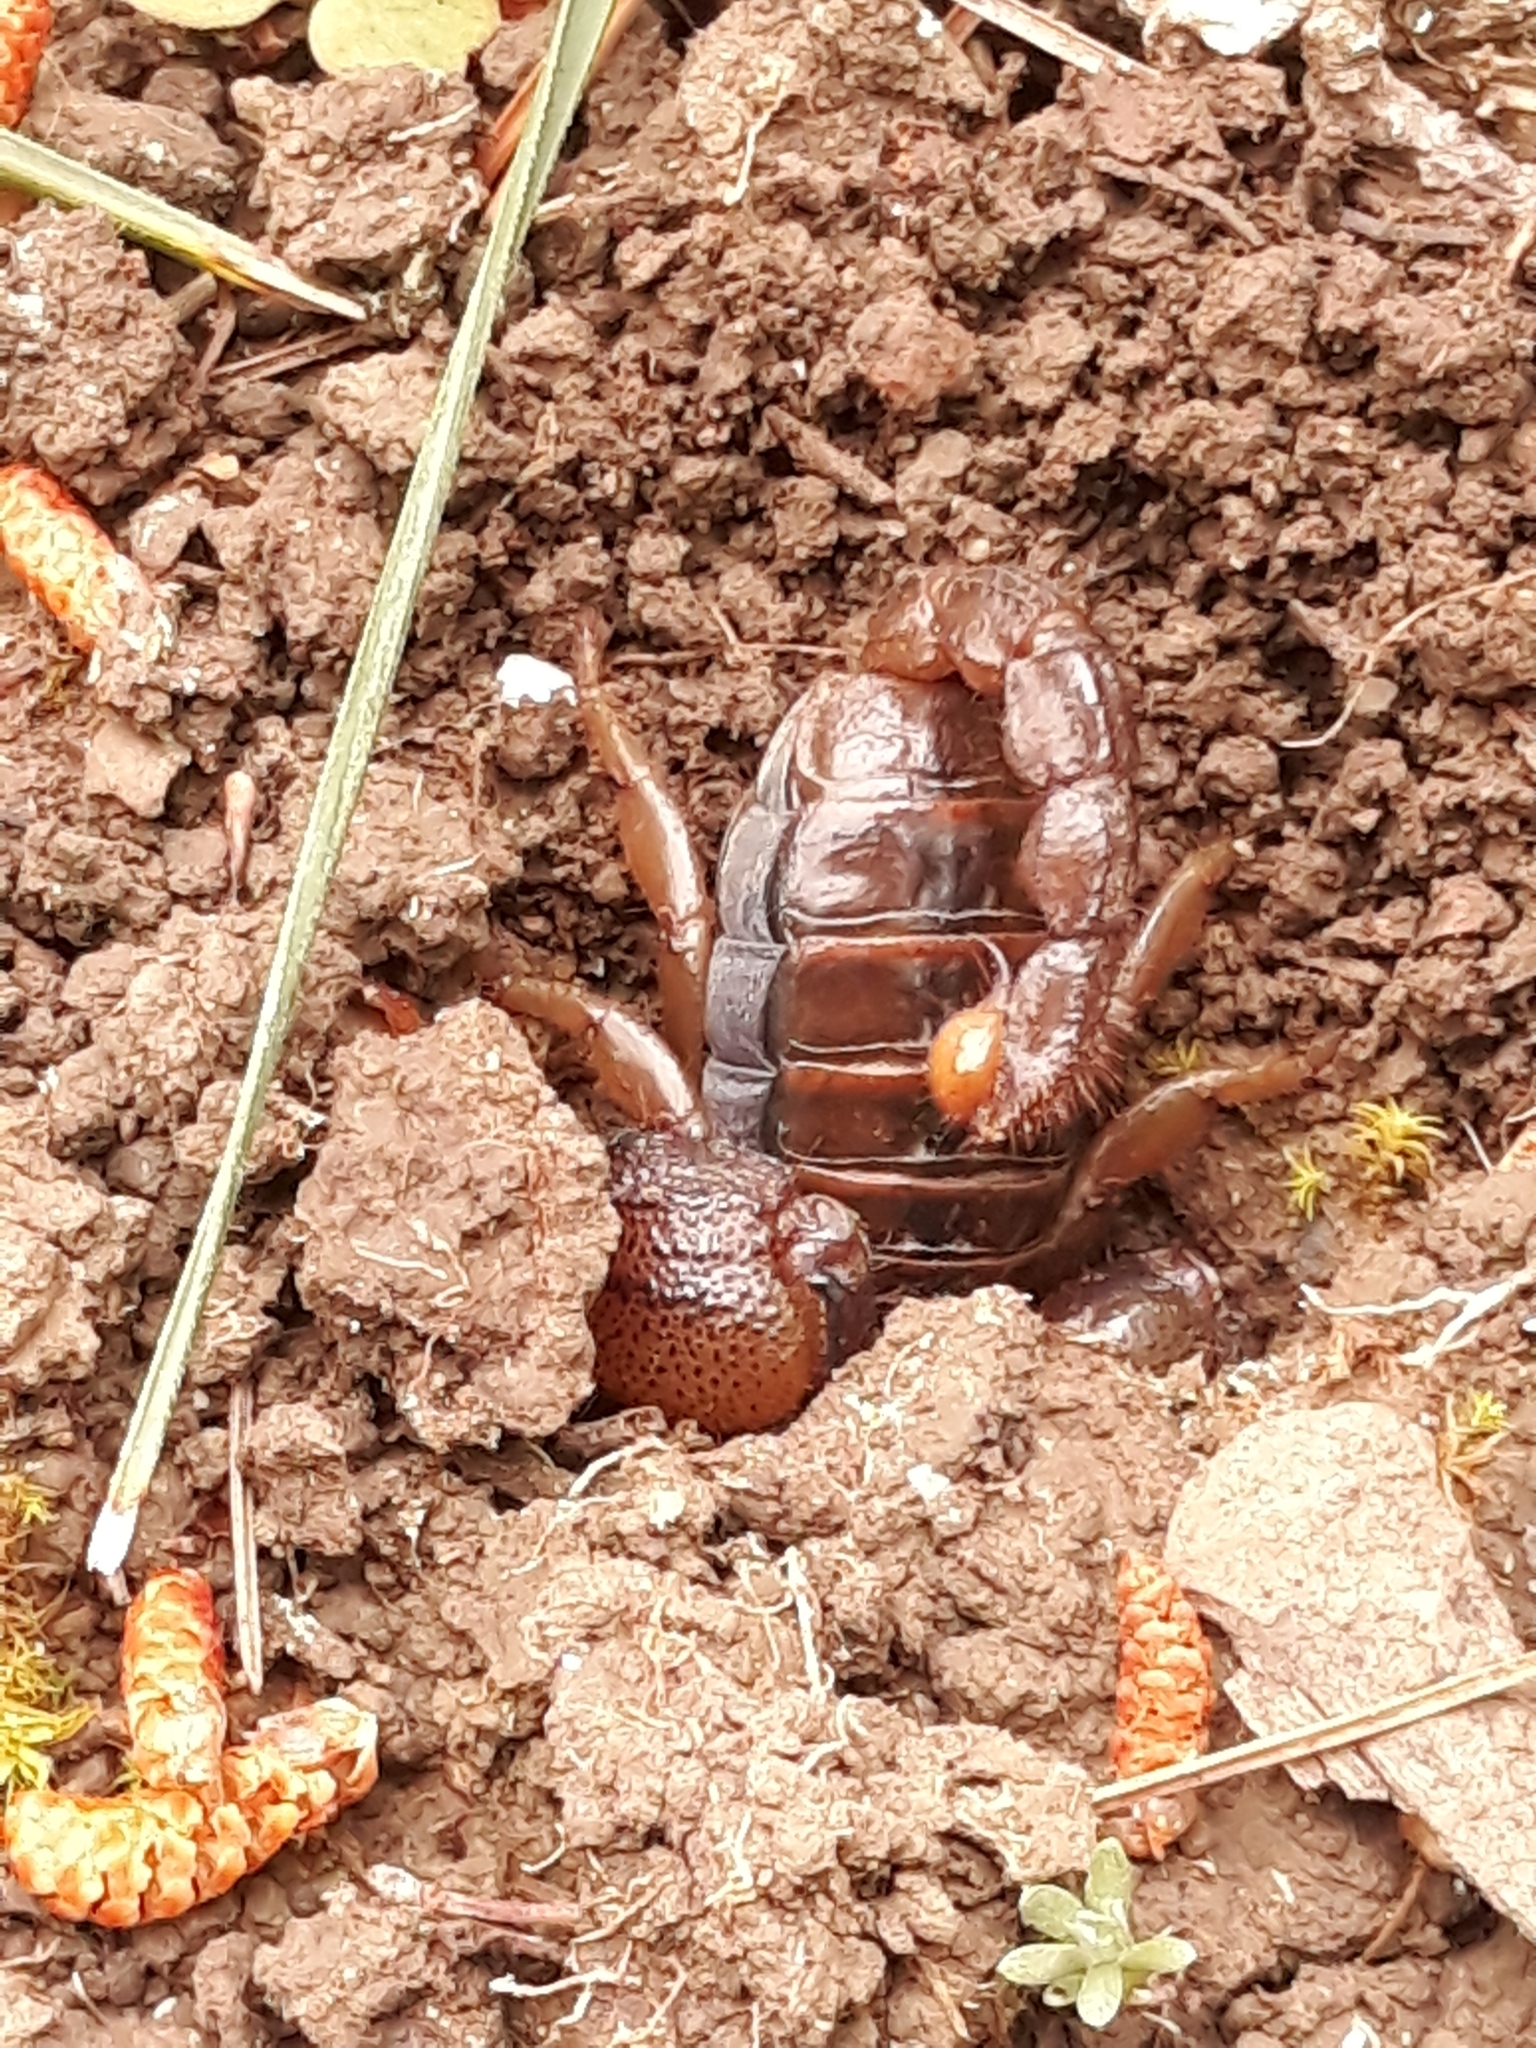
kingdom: Animalia
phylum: Arthropoda
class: Arachnida
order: Scorpiones
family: Scorpionidae
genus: Scorpio
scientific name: Scorpio maurus
